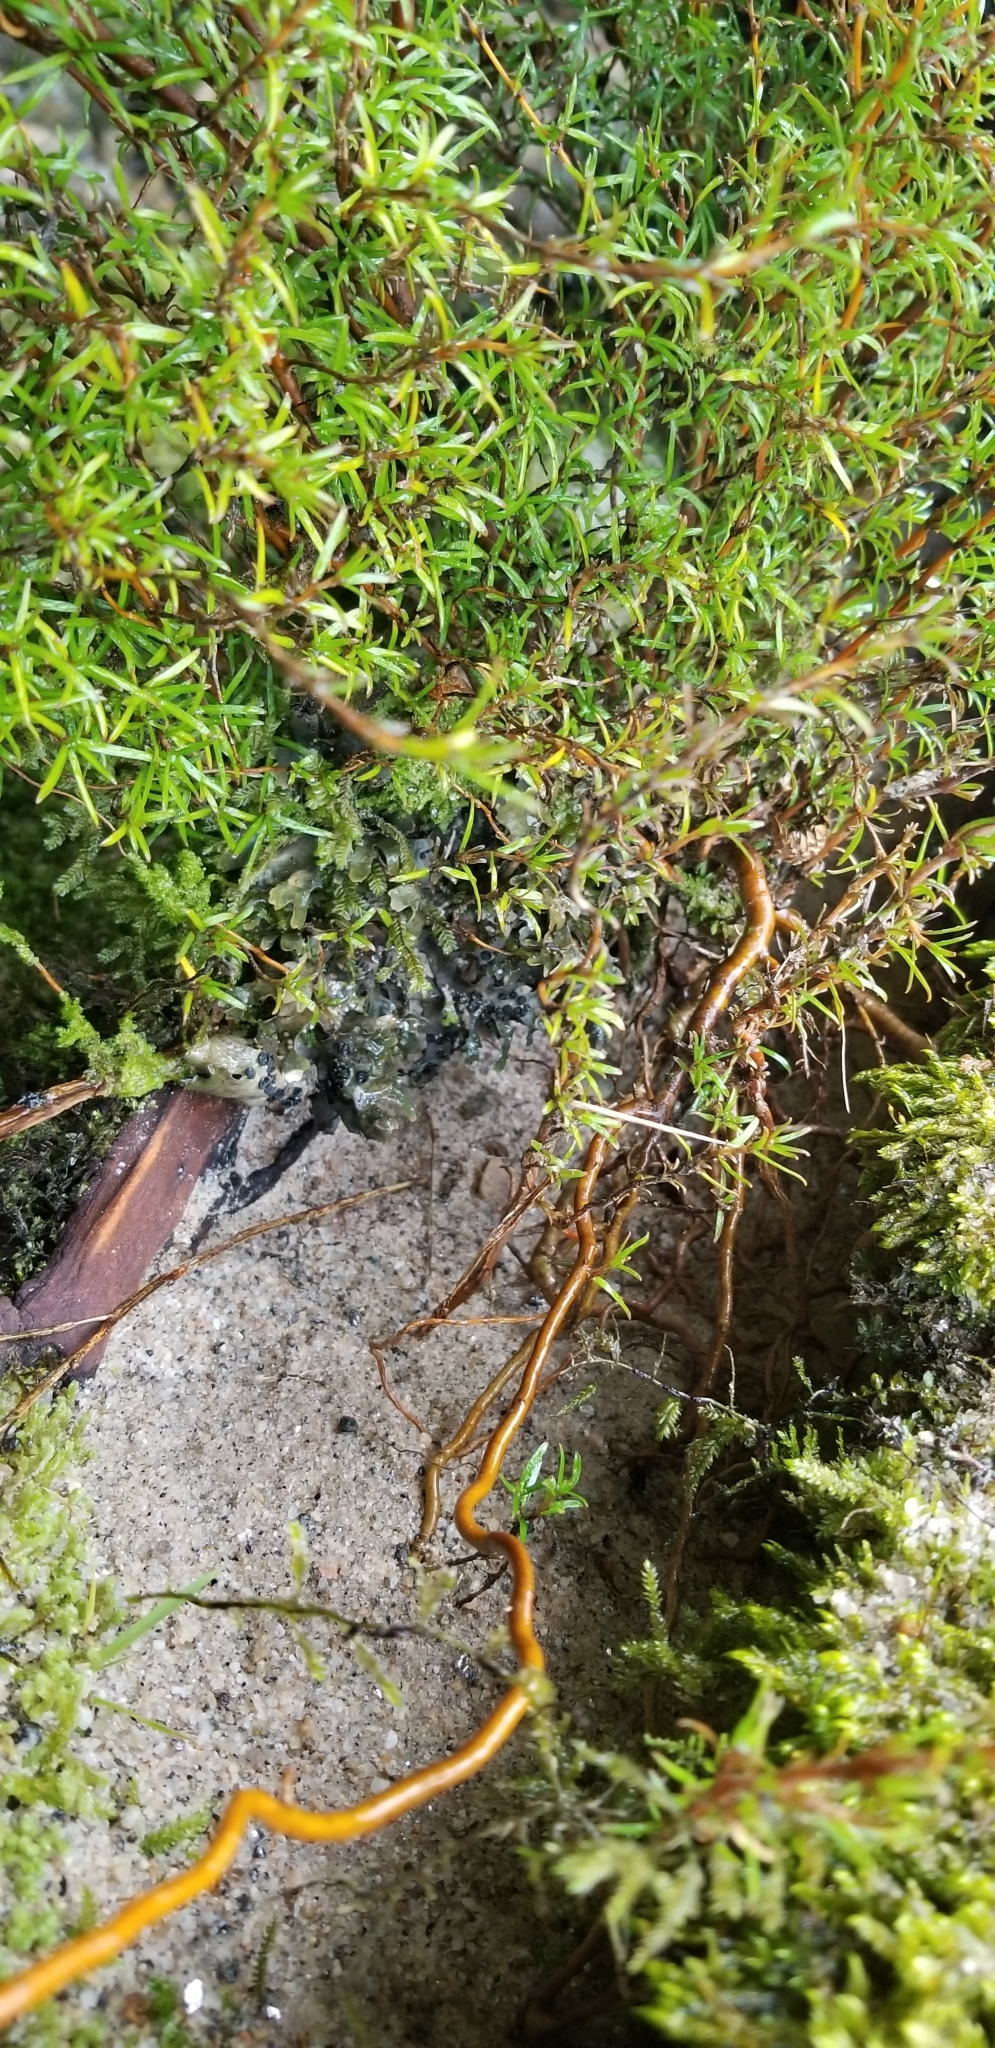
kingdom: Plantae
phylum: Tracheophyta
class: Magnoliopsida
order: Gentianales
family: Rubiaceae
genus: Coprosma
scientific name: Coprosma rugosa
